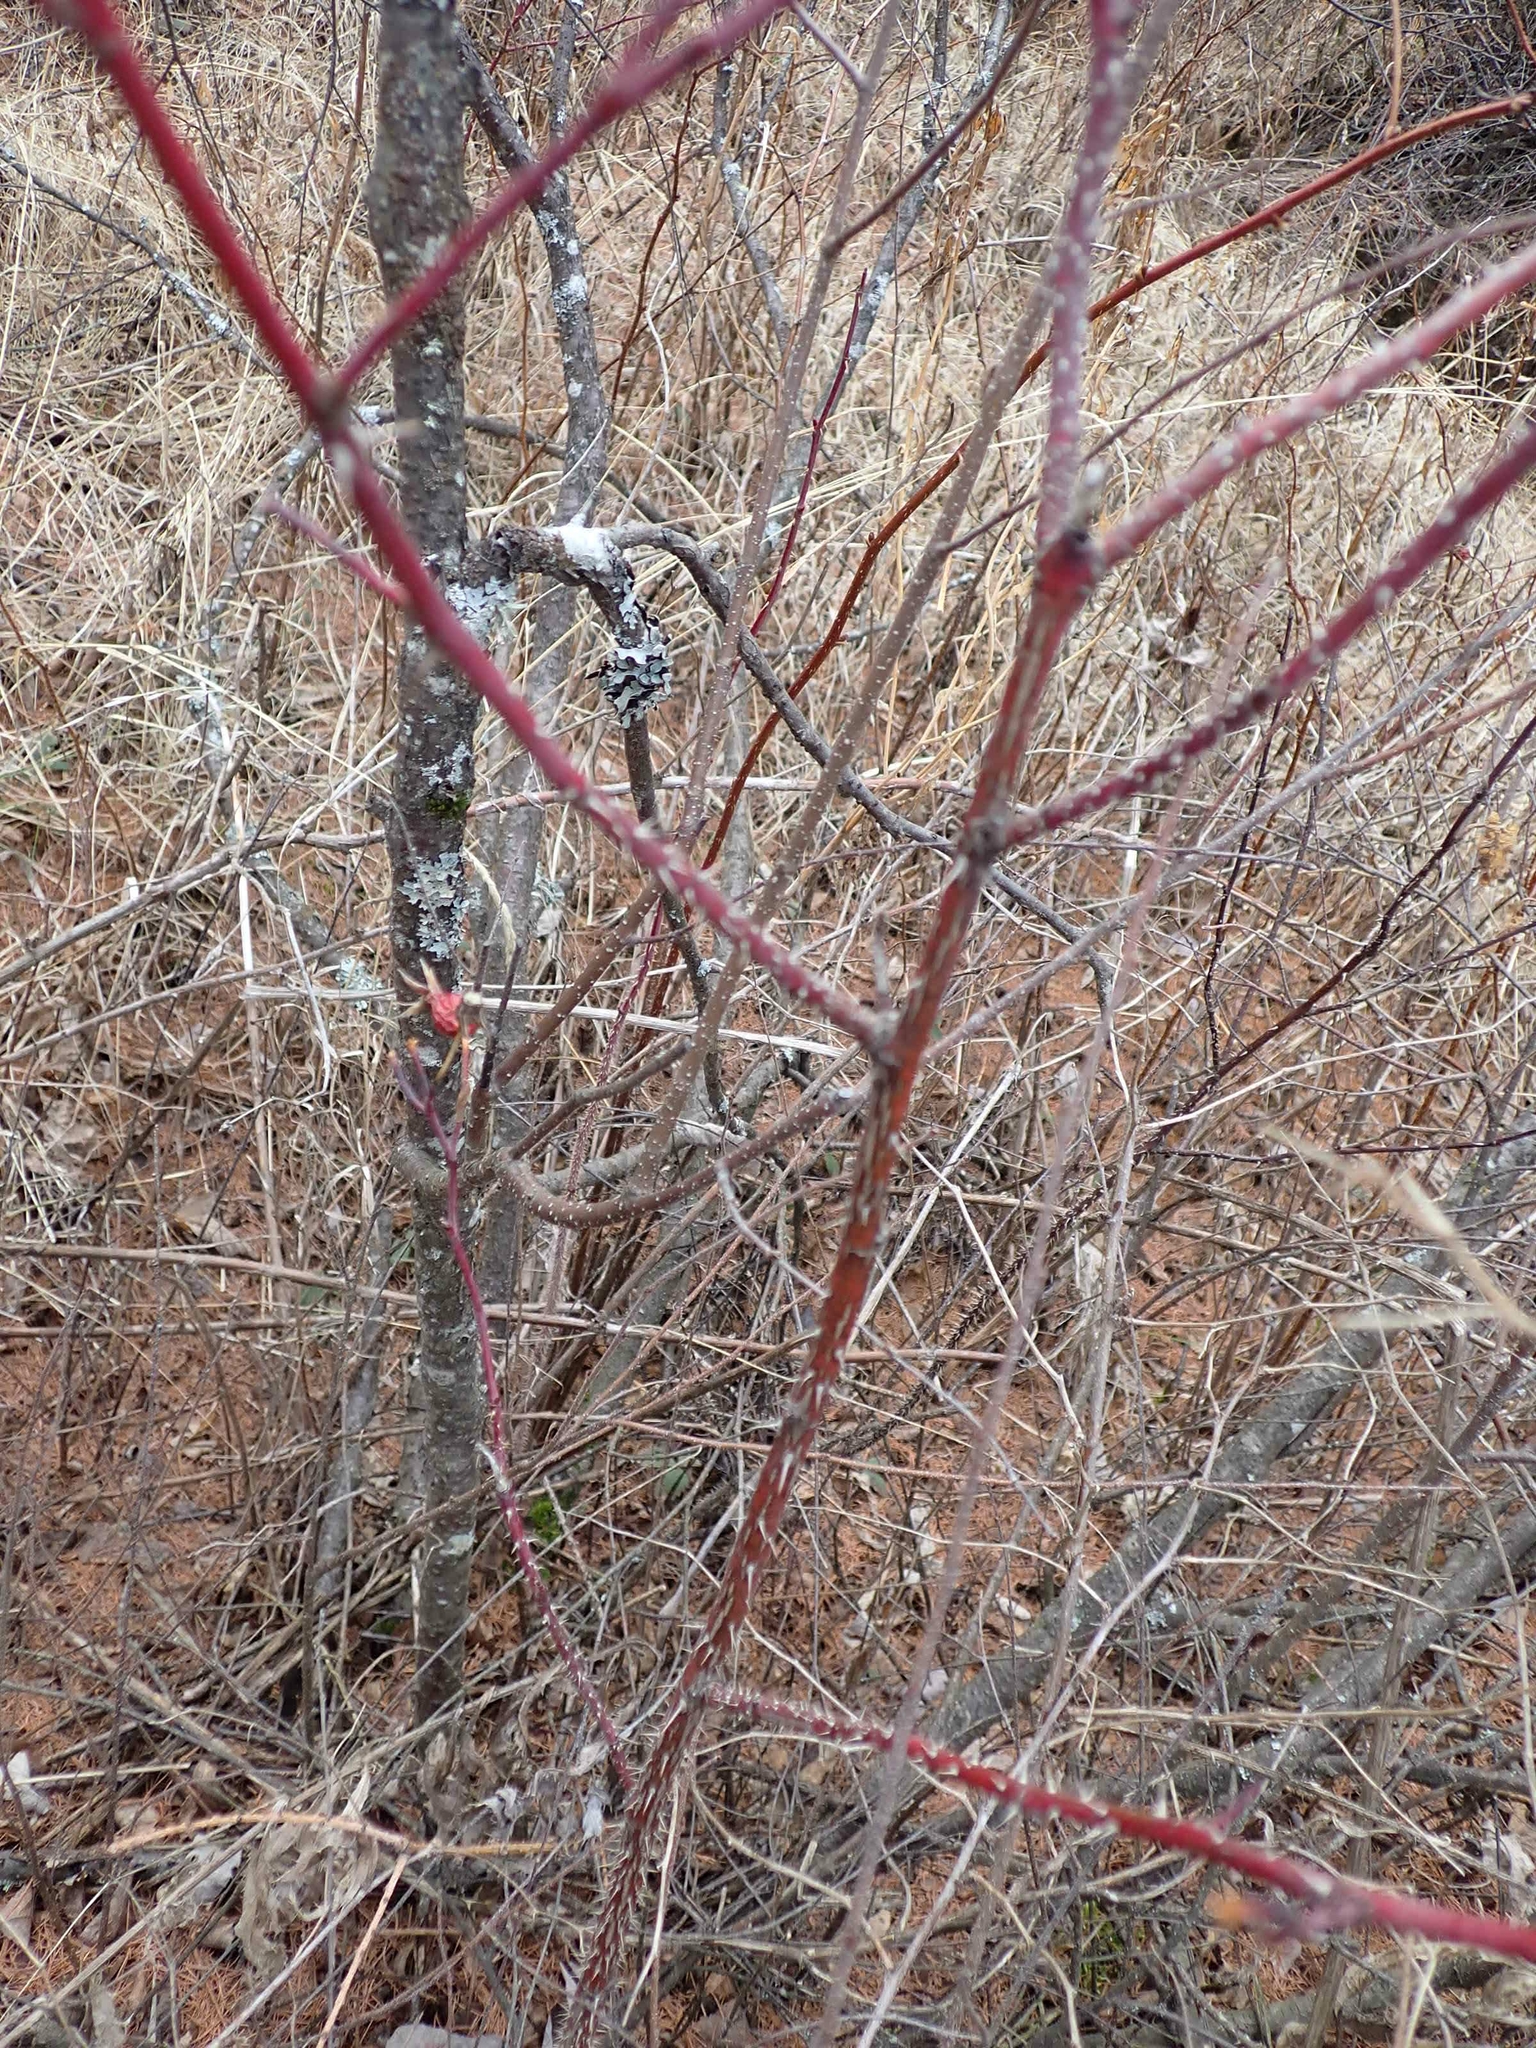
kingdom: Plantae
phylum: Tracheophyta
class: Magnoliopsida
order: Rosales
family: Rosaceae
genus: Rosa
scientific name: Rosa woodsii
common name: Woods's rose
